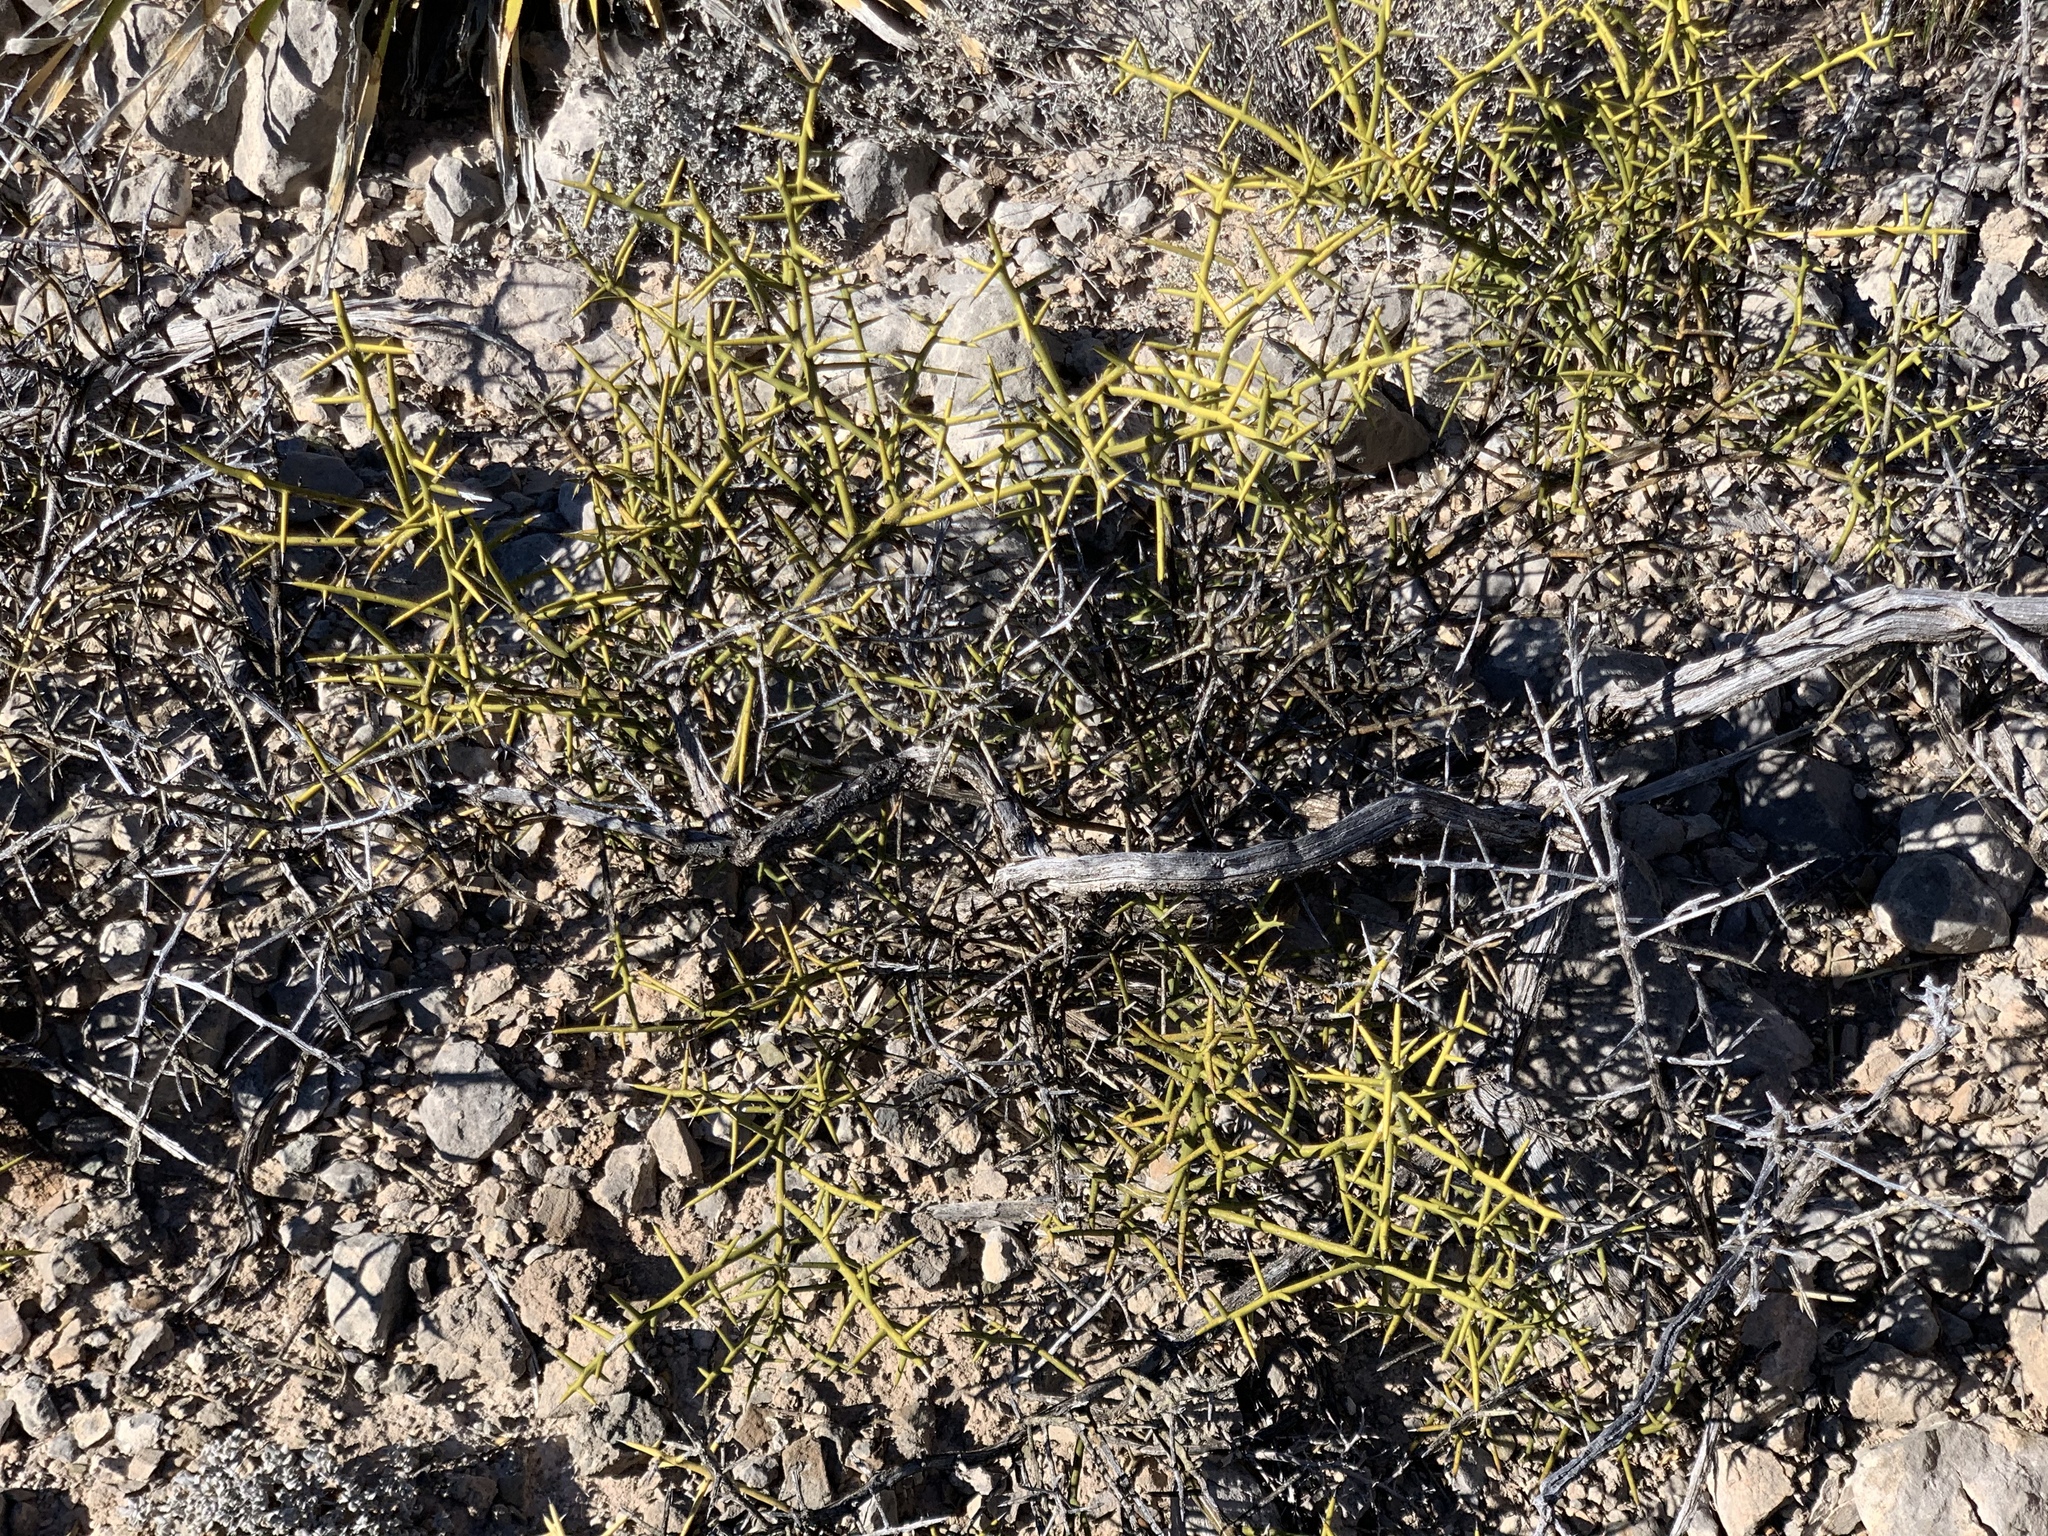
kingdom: Plantae
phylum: Tracheophyta
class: Magnoliopsida
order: Brassicales
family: Koeberliniaceae
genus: Koeberlinia
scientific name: Koeberlinia spinosa
